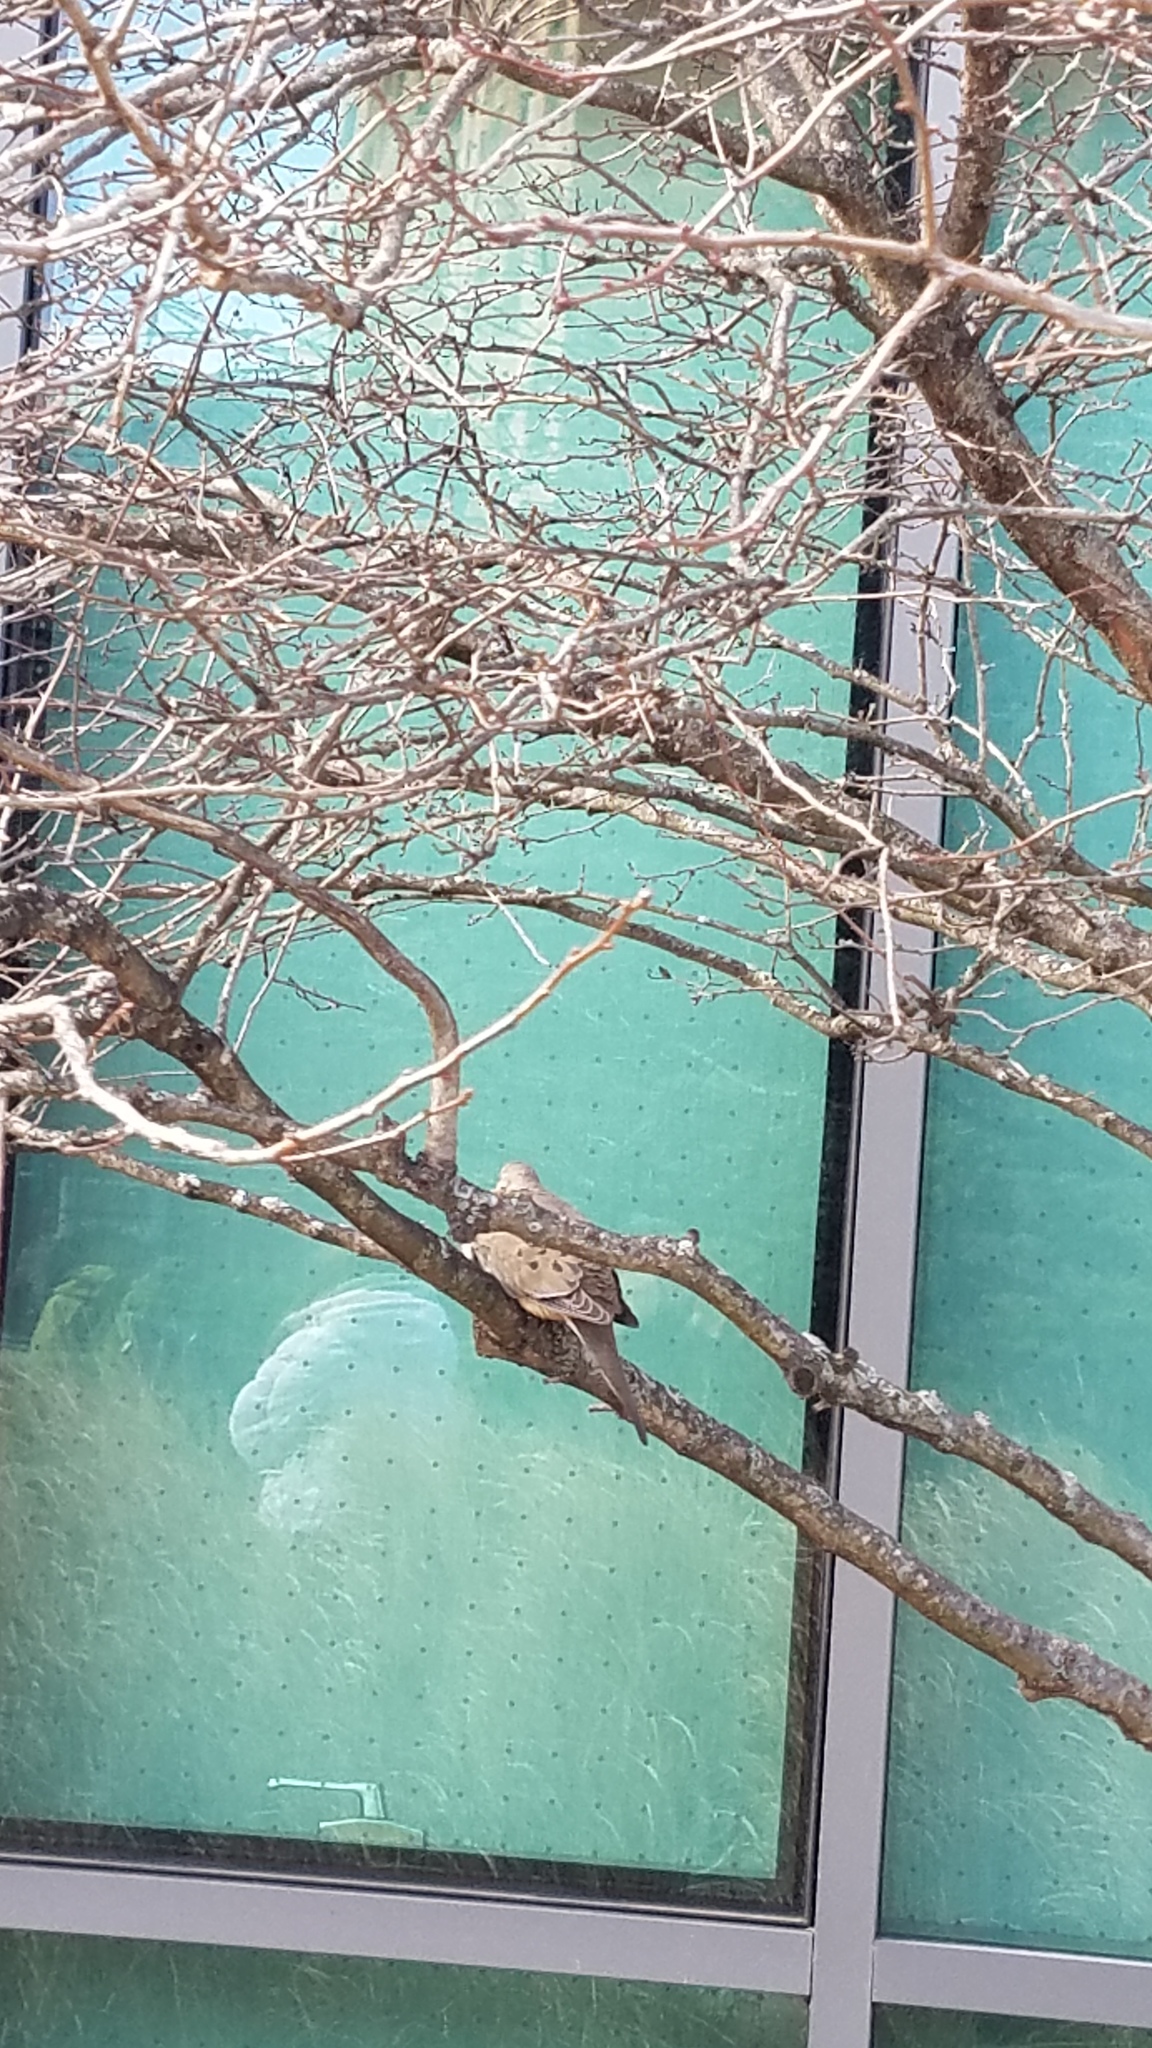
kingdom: Animalia
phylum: Chordata
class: Aves
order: Columbiformes
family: Columbidae
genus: Zenaida
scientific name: Zenaida macroura
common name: Mourning dove
